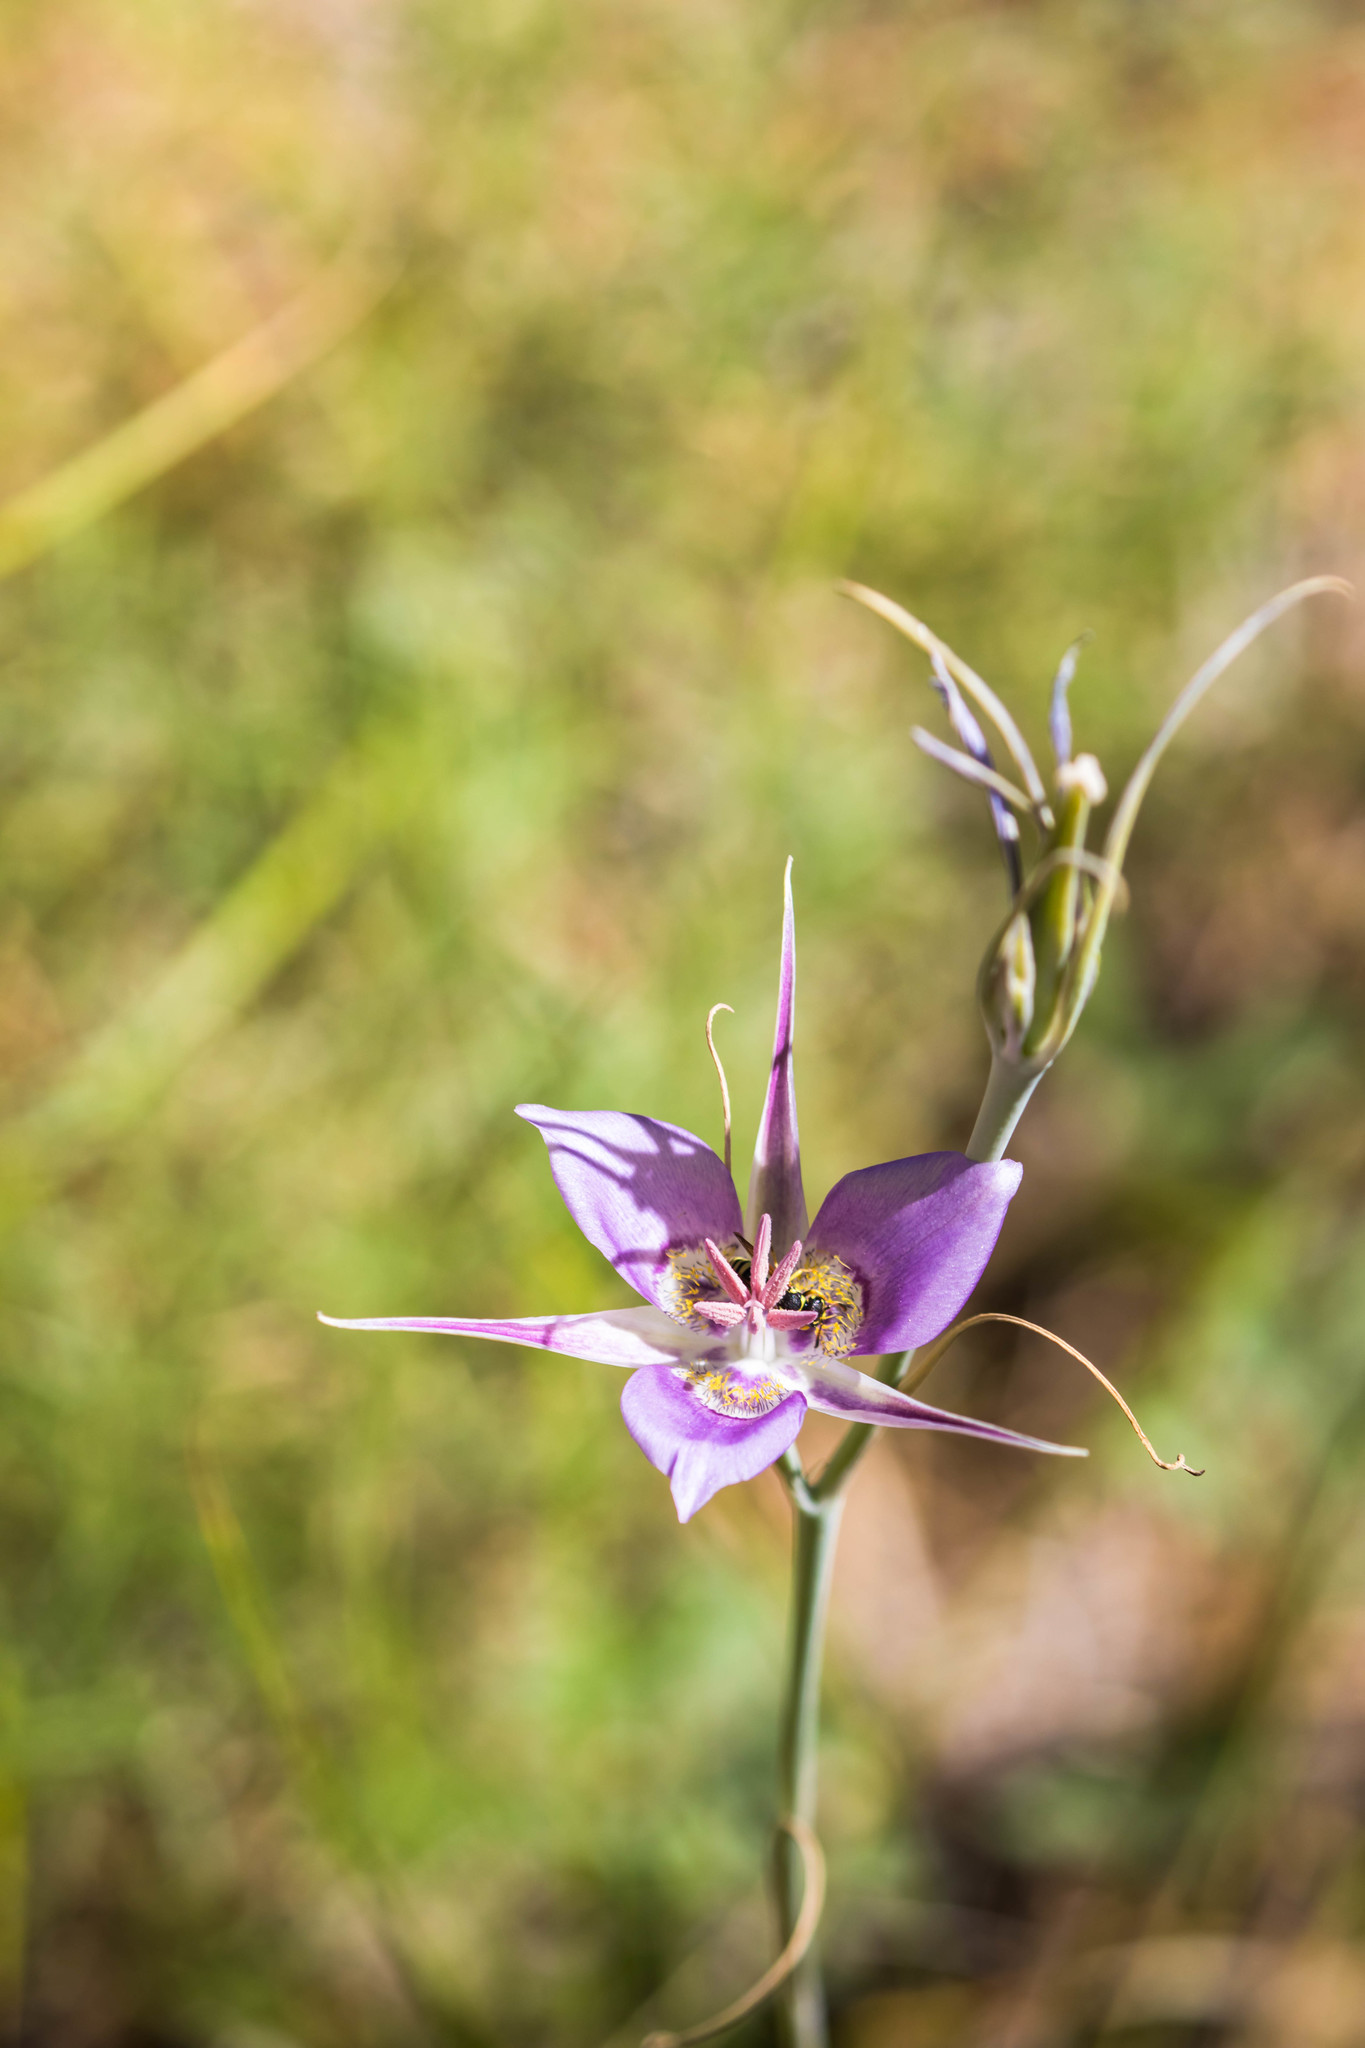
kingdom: Plantae
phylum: Tracheophyta
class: Liliopsida
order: Liliales
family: Liliaceae
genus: Calochortus
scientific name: Calochortus macrocarpus
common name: Green-band mariposa lily
